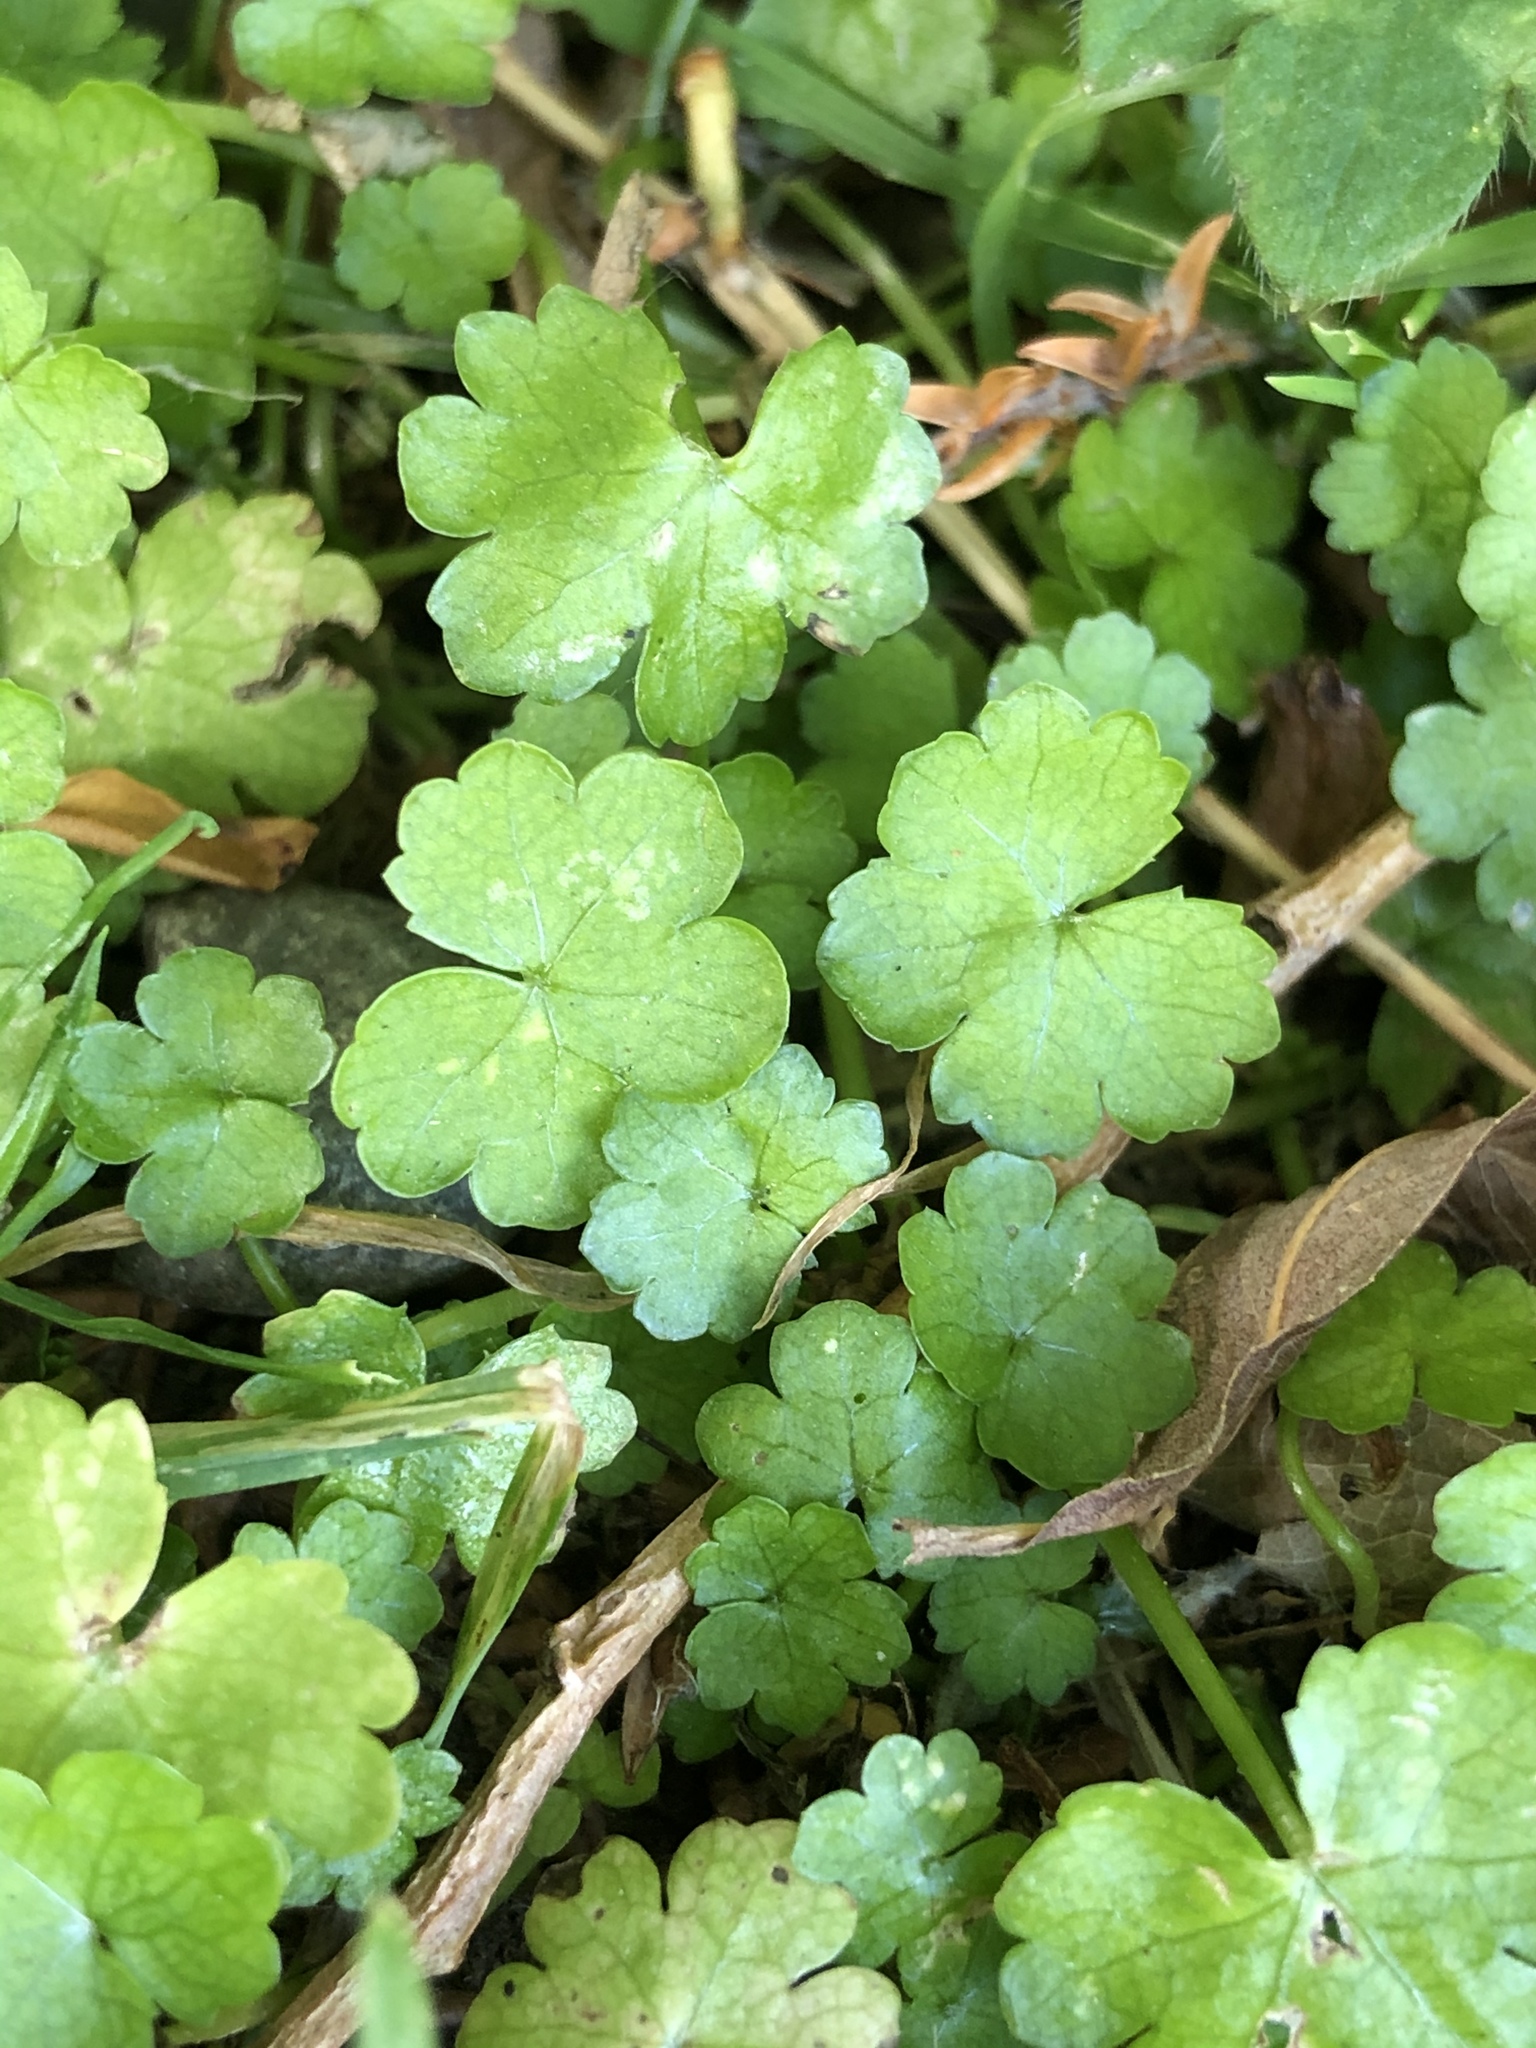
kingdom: Plantae
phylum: Tracheophyta
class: Magnoliopsida
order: Apiales
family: Araliaceae
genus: Hydrocotyle
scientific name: Hydrocotyle heteromeria
